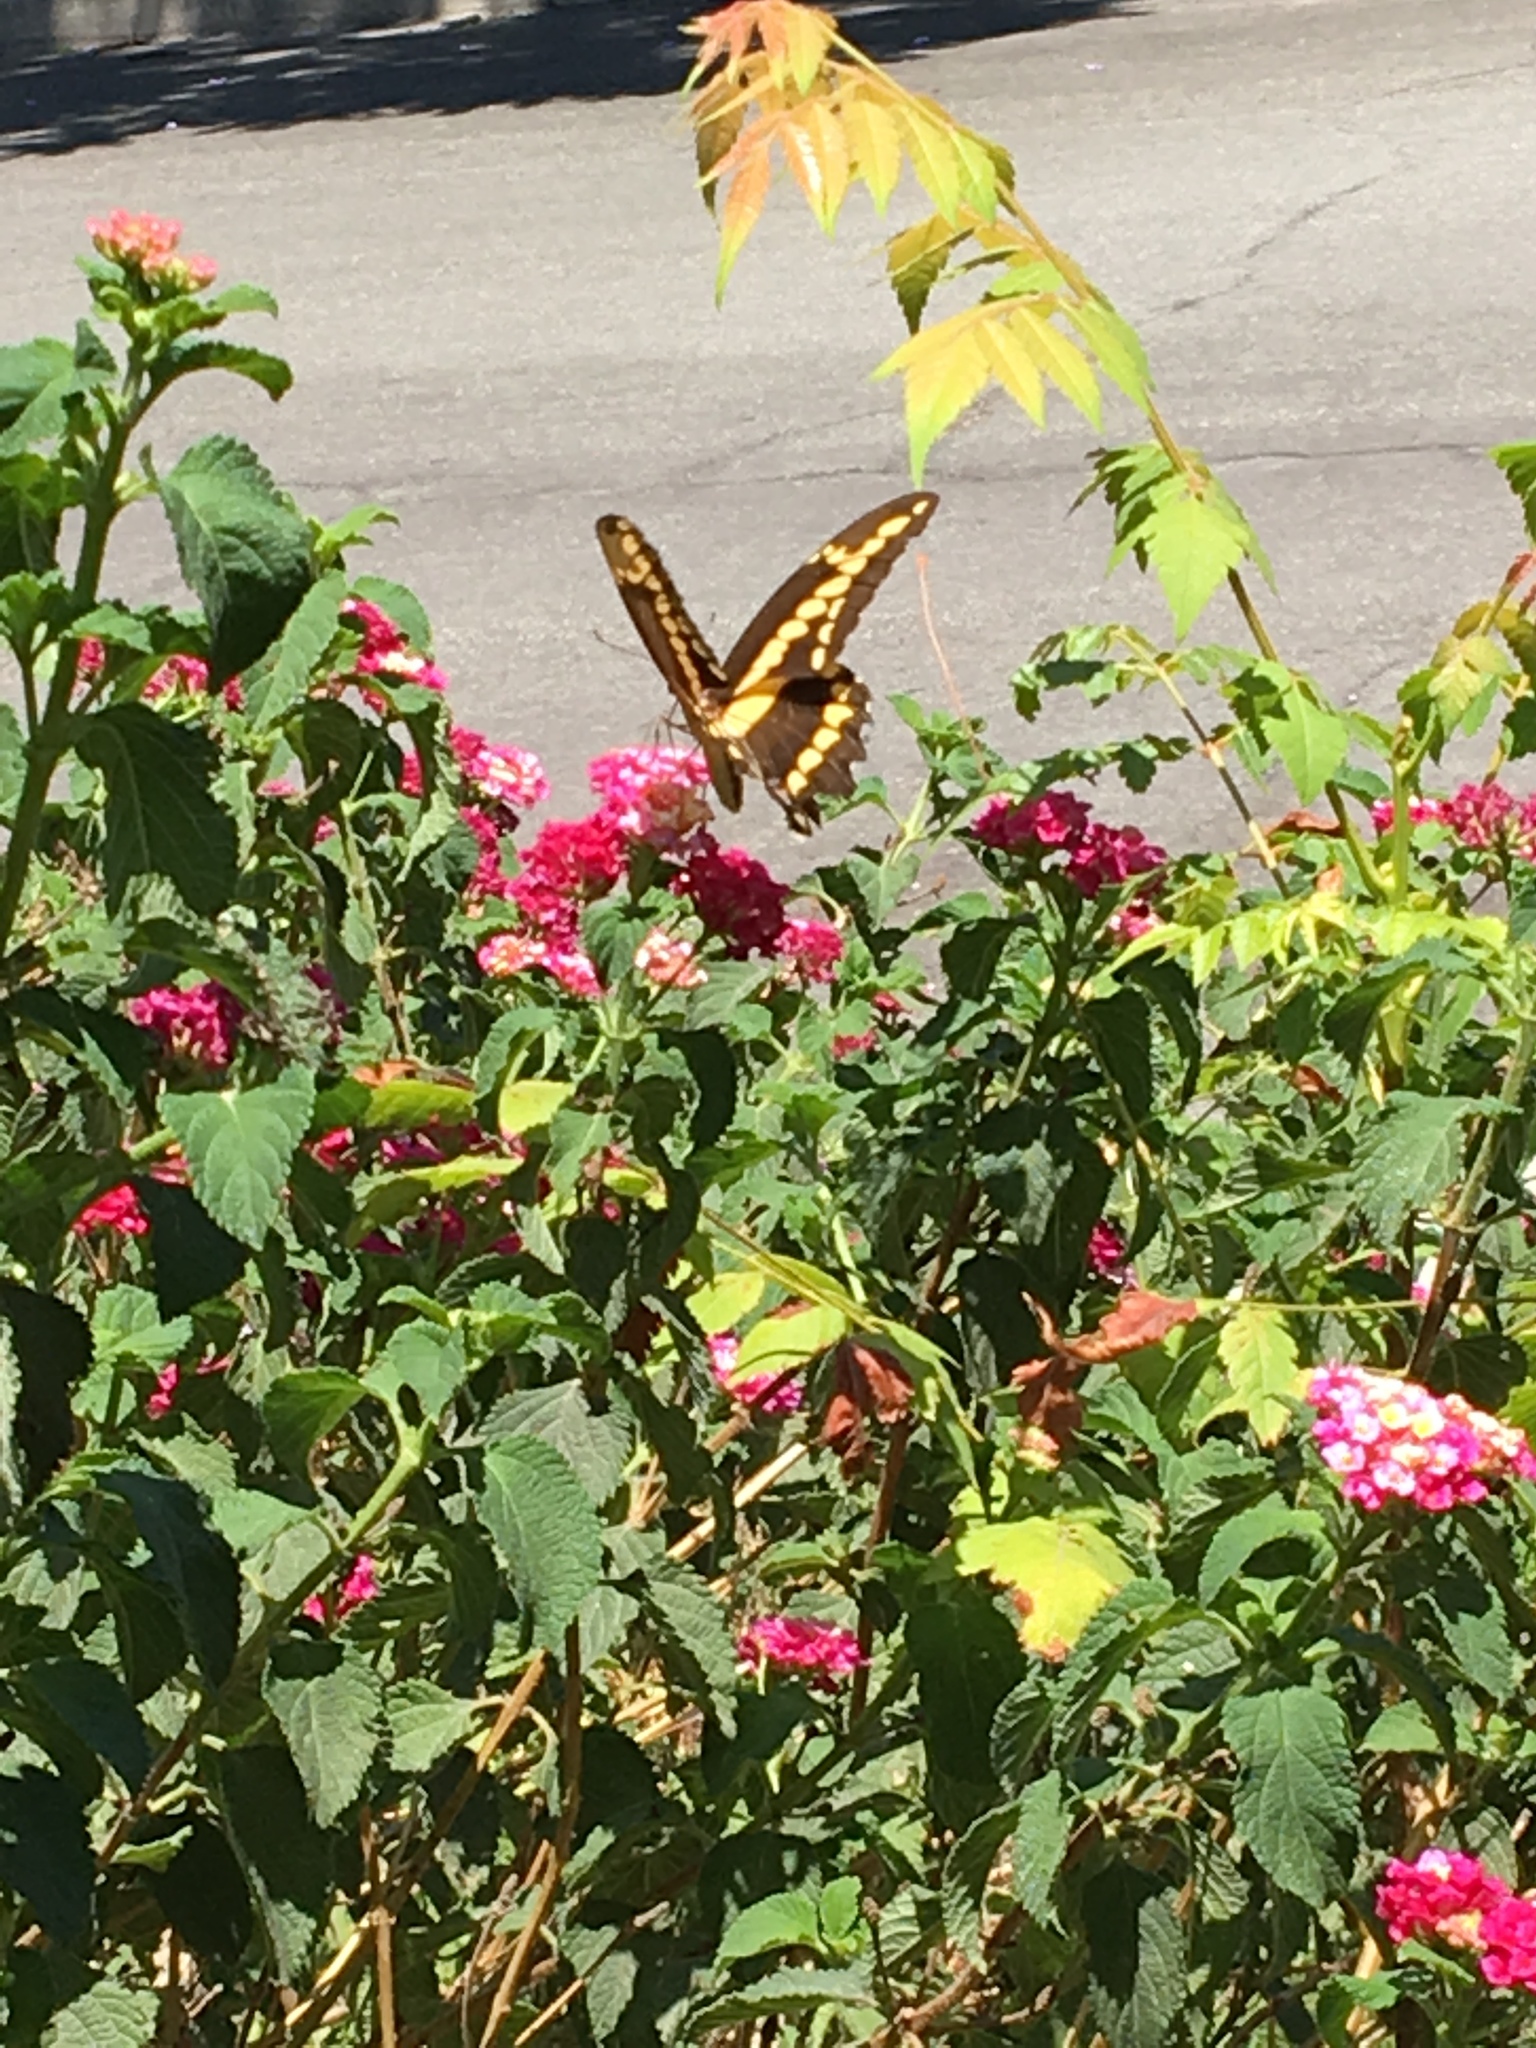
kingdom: Animalia
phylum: Arthropoda
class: Insecta
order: Lepidoptera
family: Papilionidae
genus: Papilio
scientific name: Papilio rumiko
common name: Western giant swallowtail
